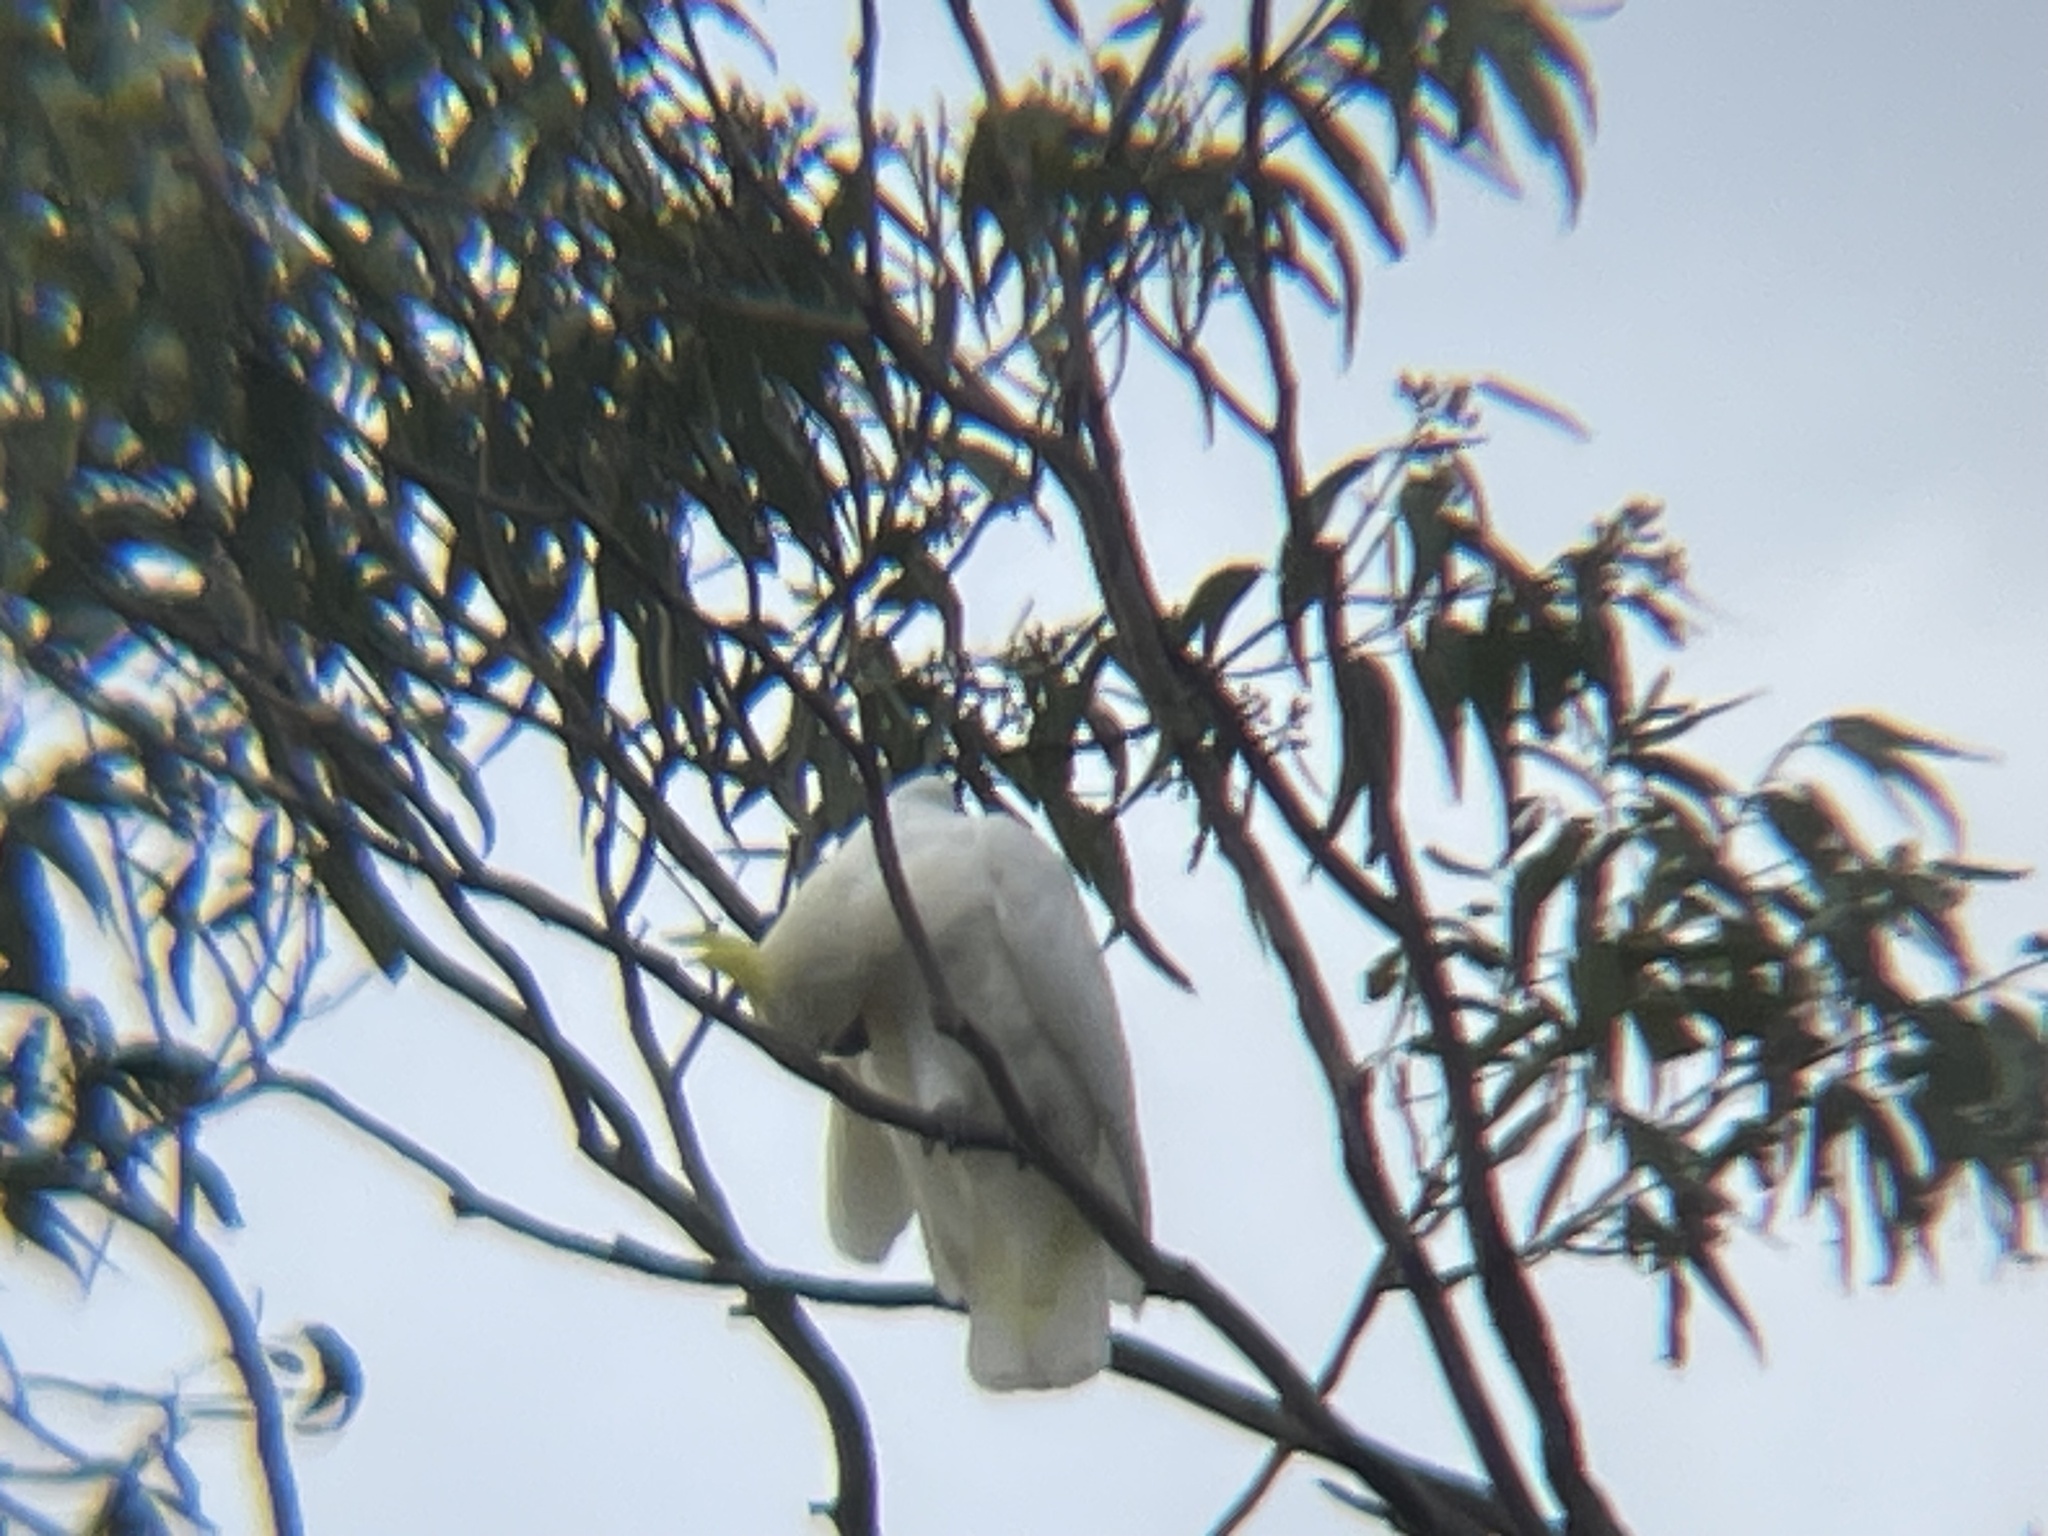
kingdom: Animalia
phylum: Chordata
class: Aves
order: Psittaciformes
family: Psittacidae
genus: Cacatua
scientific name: Cacatua galerita
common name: Sulphur-crested cockatoo
